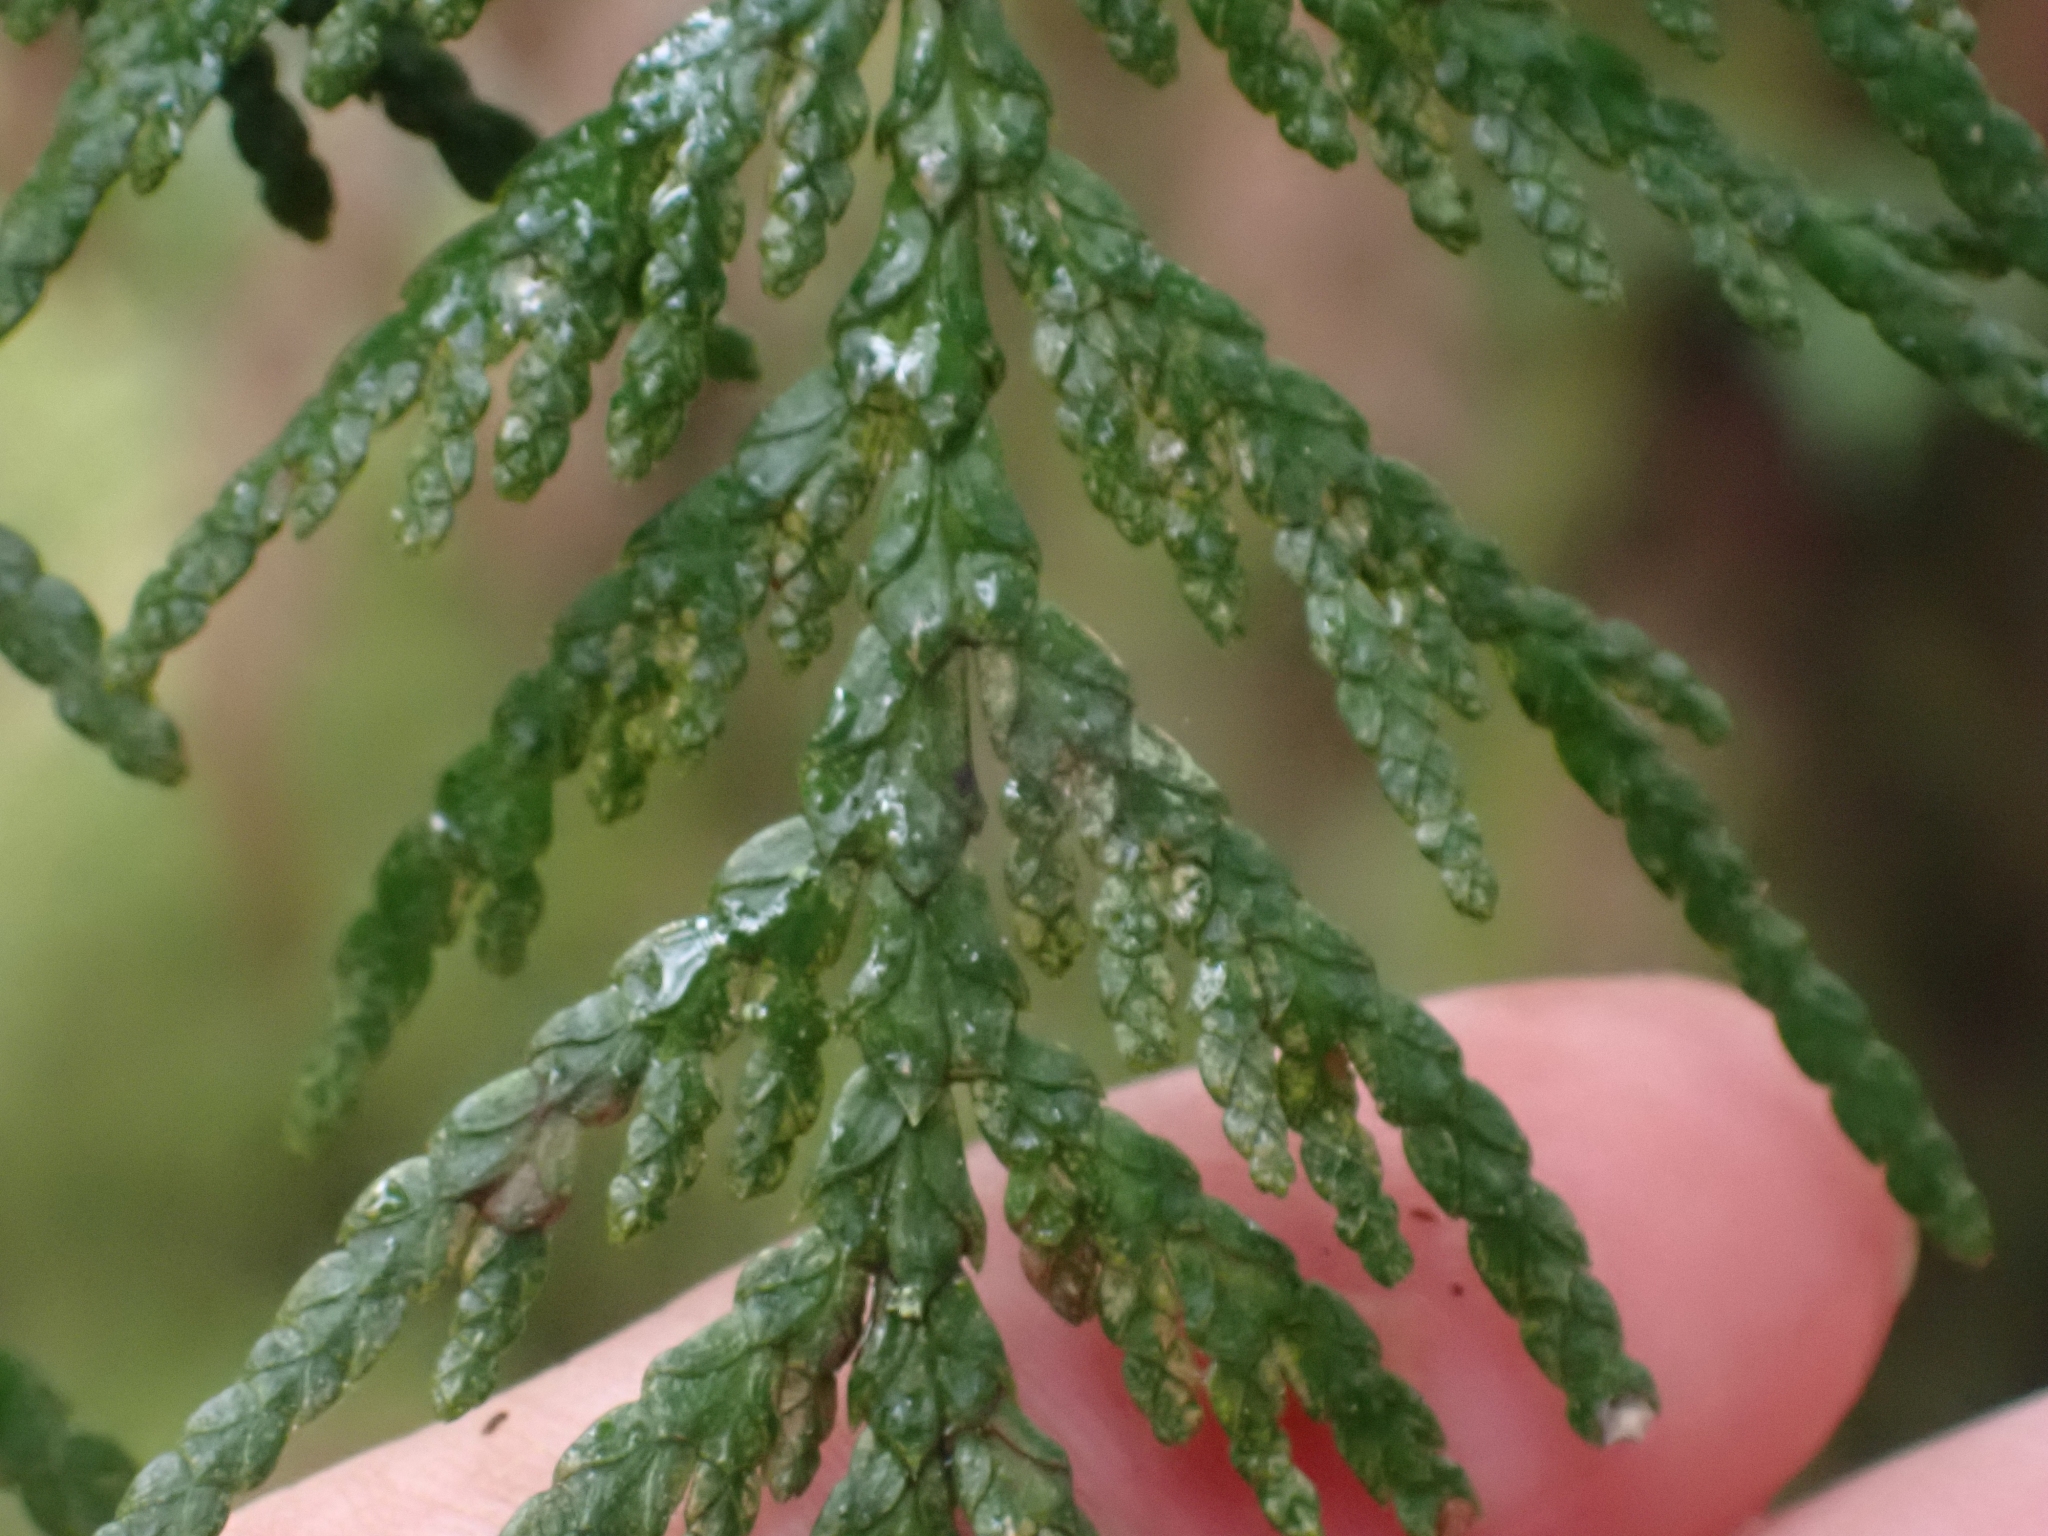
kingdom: Plantae
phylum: Tracheophyta
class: Pinopsida
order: Pinales
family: Cupressaceae
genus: Thuja
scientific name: Thuja plicata
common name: Western red-cedar
